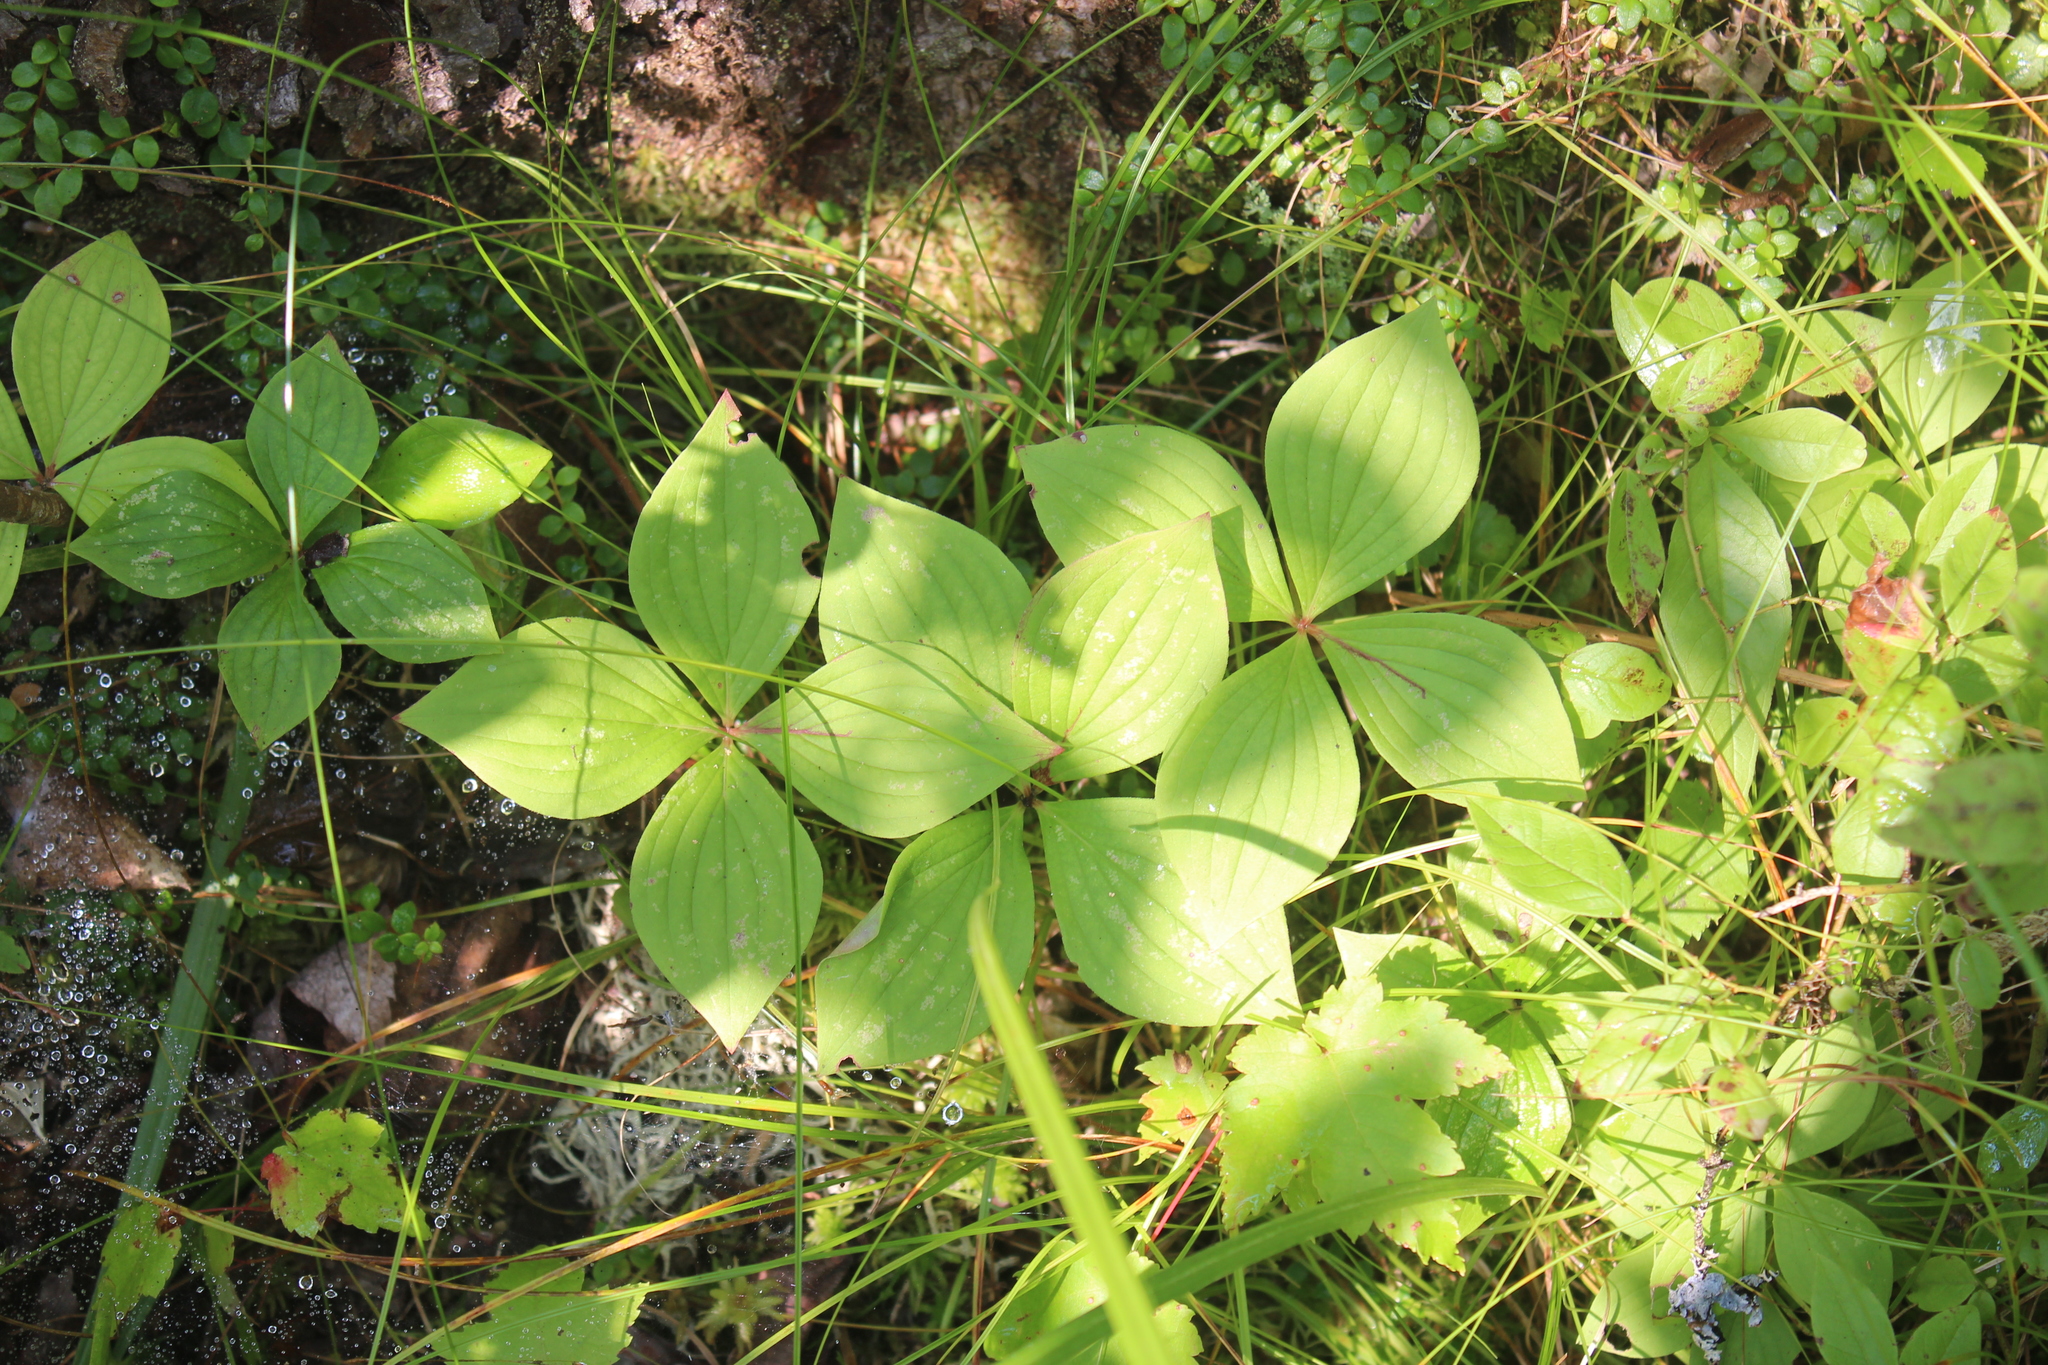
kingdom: Plantae
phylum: Tracheophyta
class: Magnoliopsida
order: Cornales
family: Cornaceae
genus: Cornus
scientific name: Cornus canadensis
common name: Creeping dogwood
